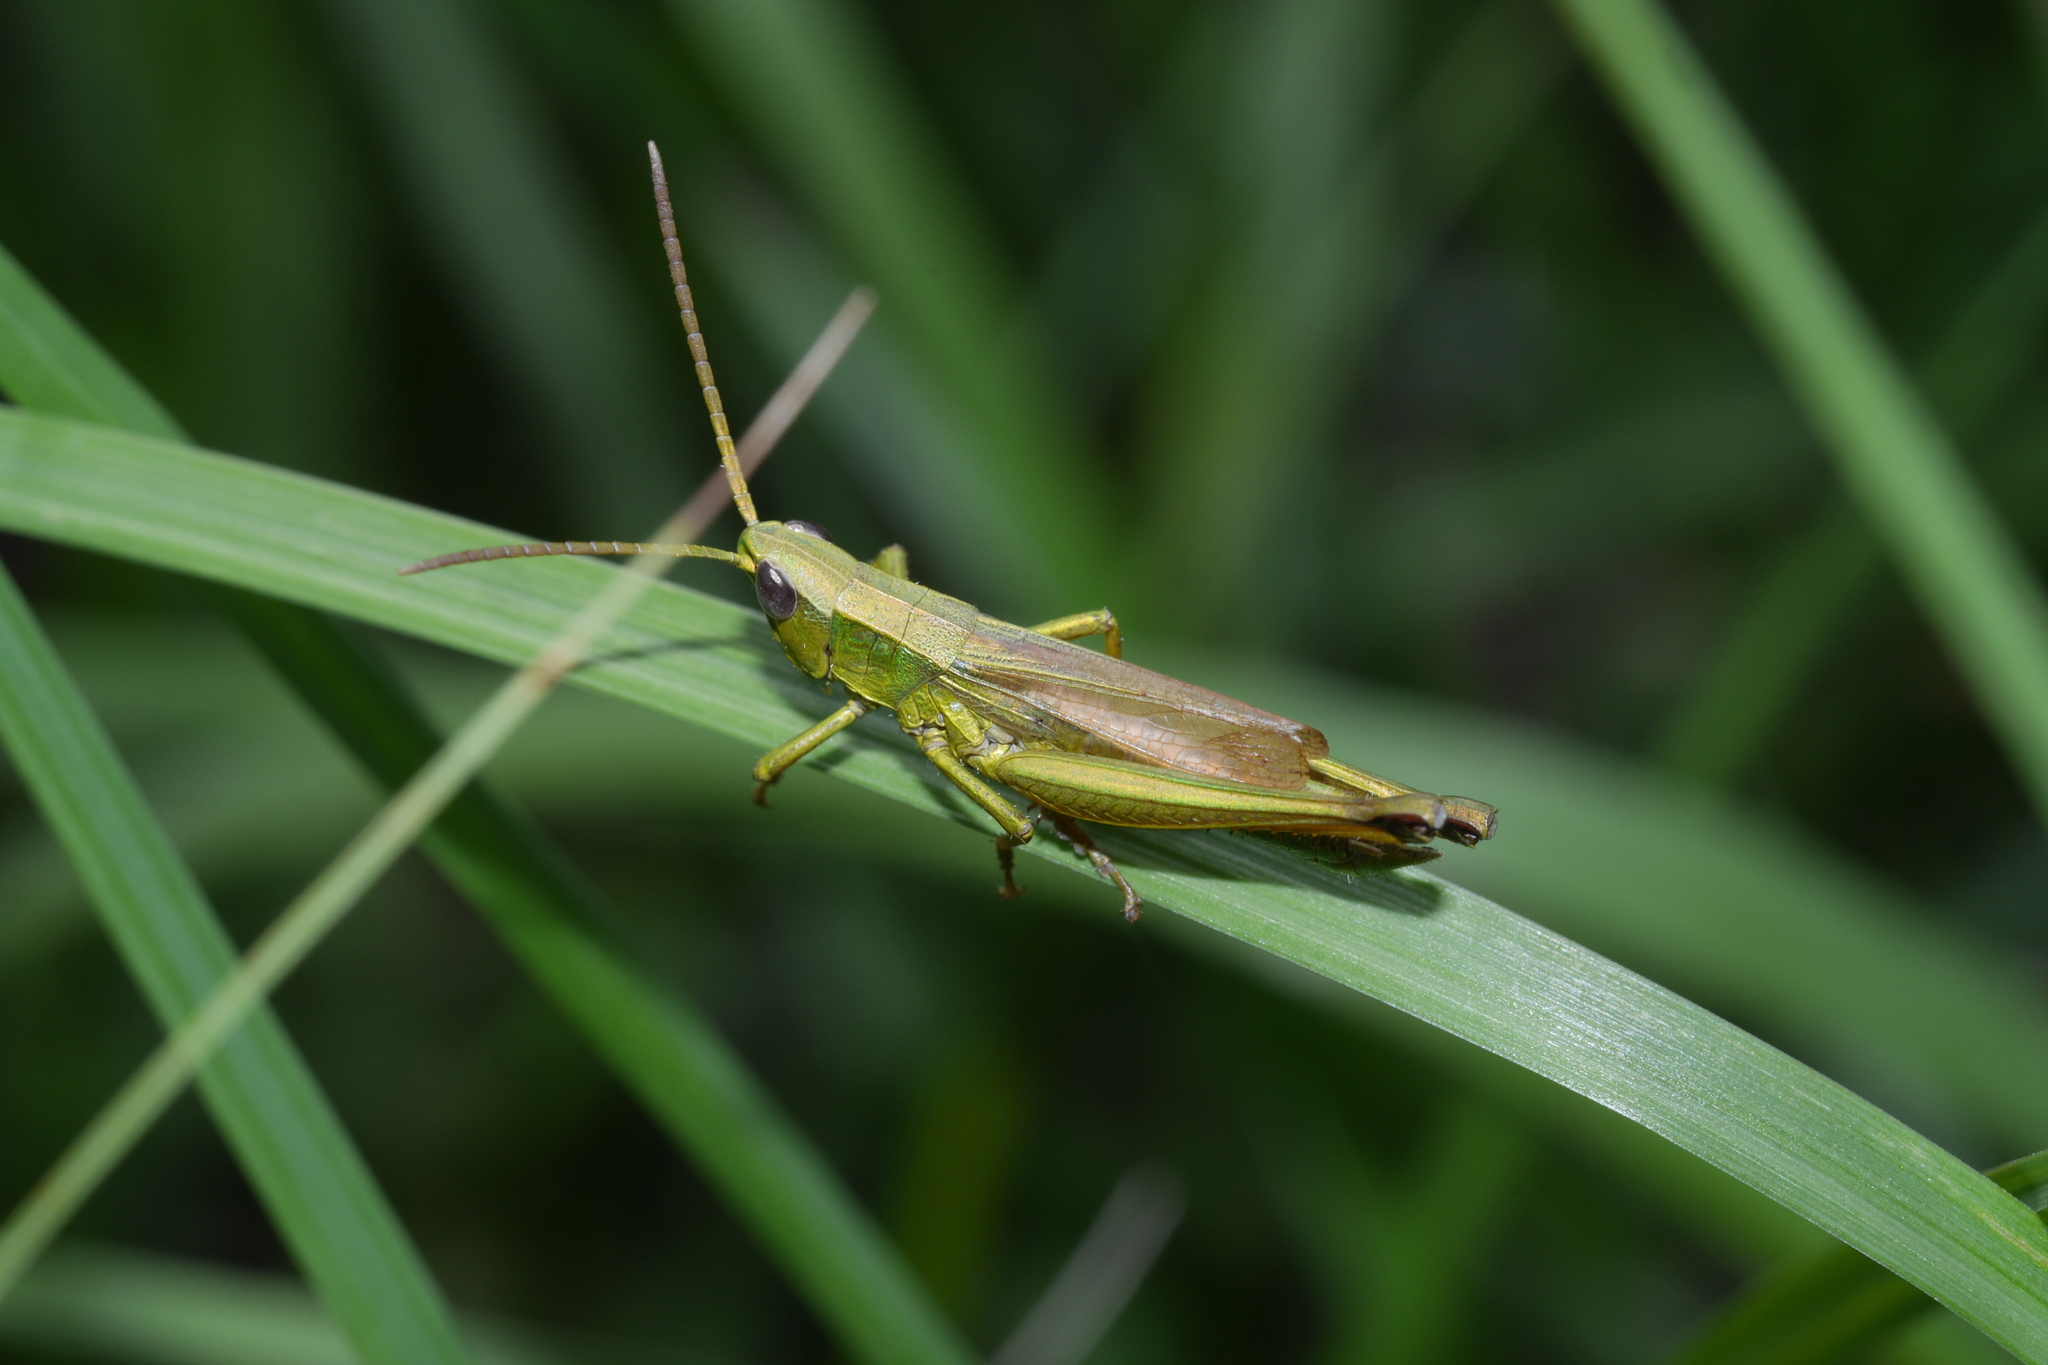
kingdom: Animalia
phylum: Arthropoda
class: Insecta
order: Orthoptera
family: Acrididae
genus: Chrysochraon
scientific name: Chrysochraon dispar
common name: Large gold grasshopper
